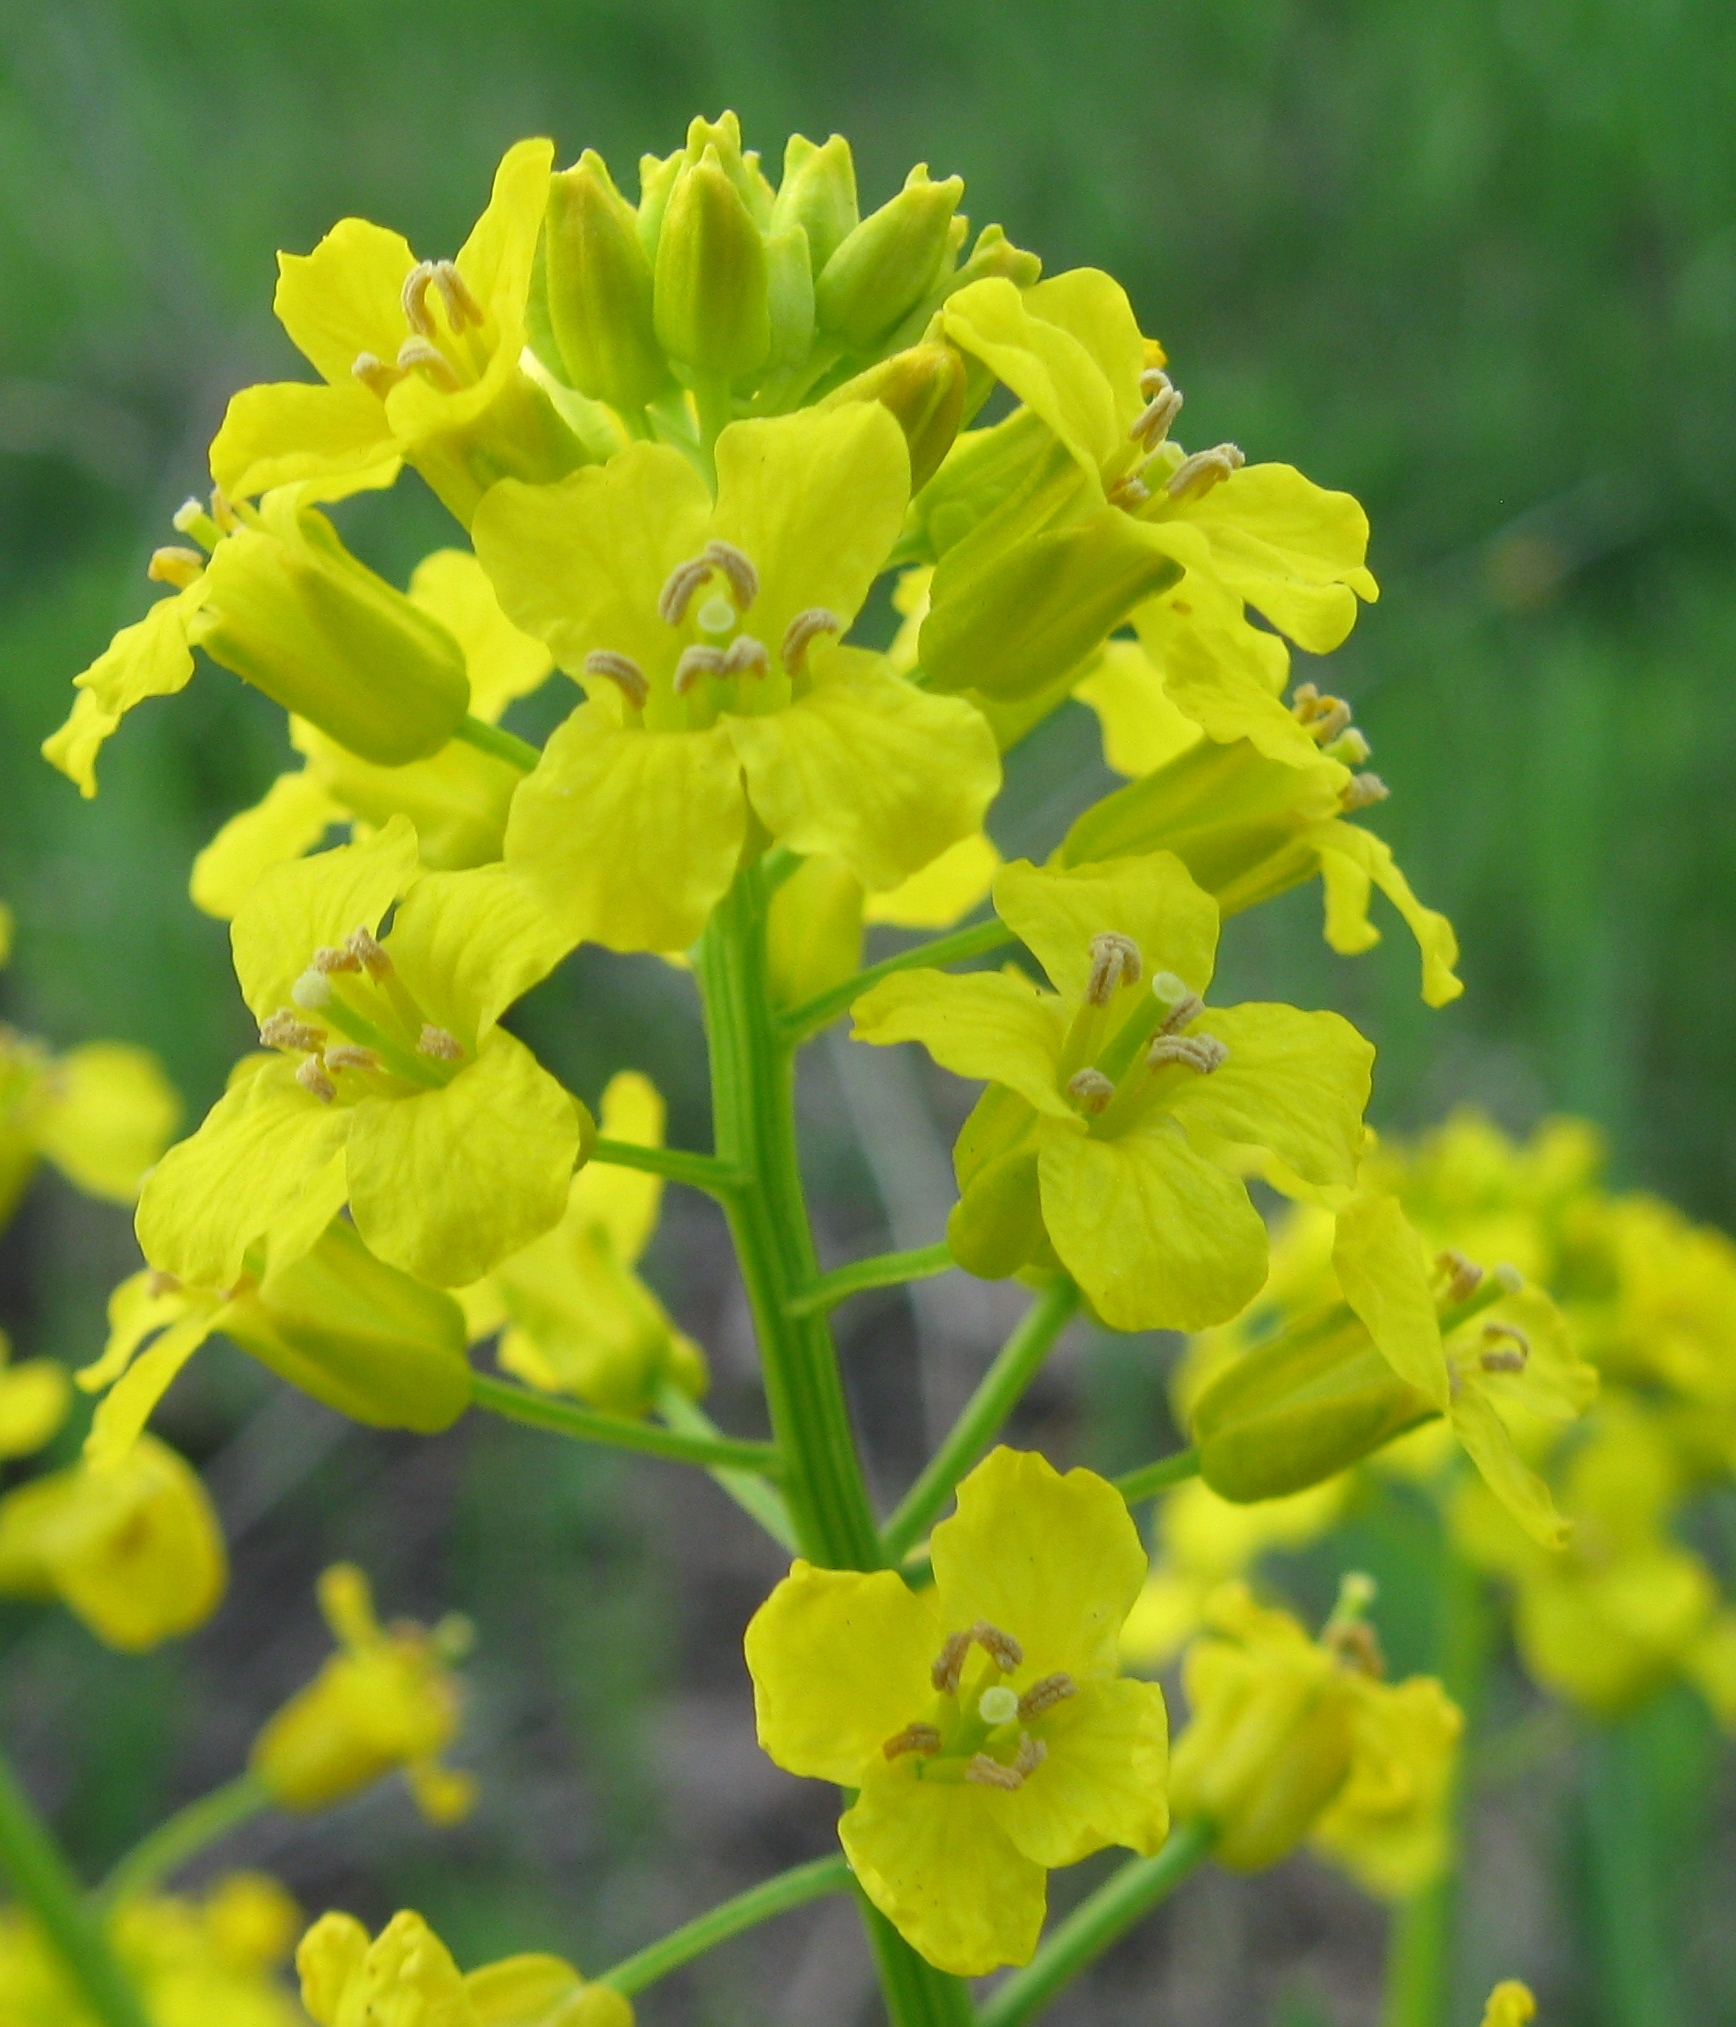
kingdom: Plantae
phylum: Tracheophyta
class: Magnoliopsida
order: Brassicales
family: Brassicaceae
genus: Barbarea
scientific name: Barbarea vulgaris
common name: Cressy-greens
